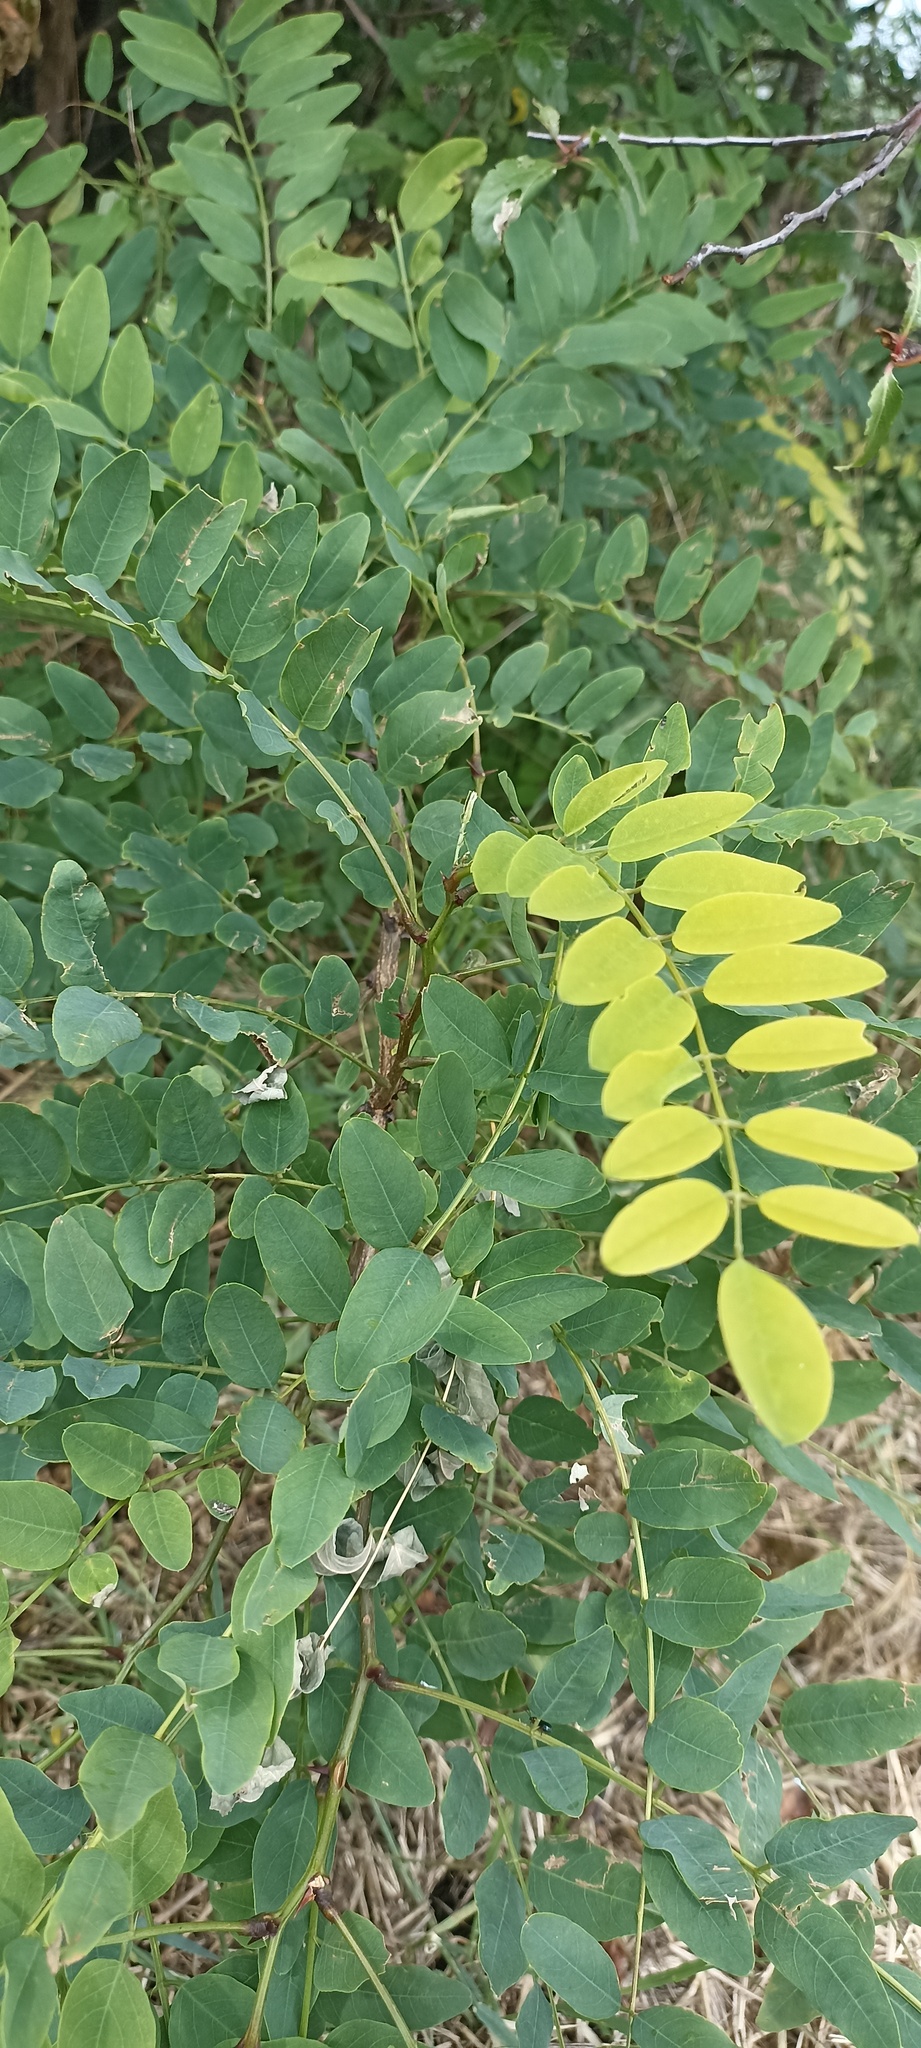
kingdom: Plantae
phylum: Tracheophyta
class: Magnoliopsida
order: Fabales
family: Fabaceae
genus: Robinia
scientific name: Robinia pseudoacacia
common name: Black locust
